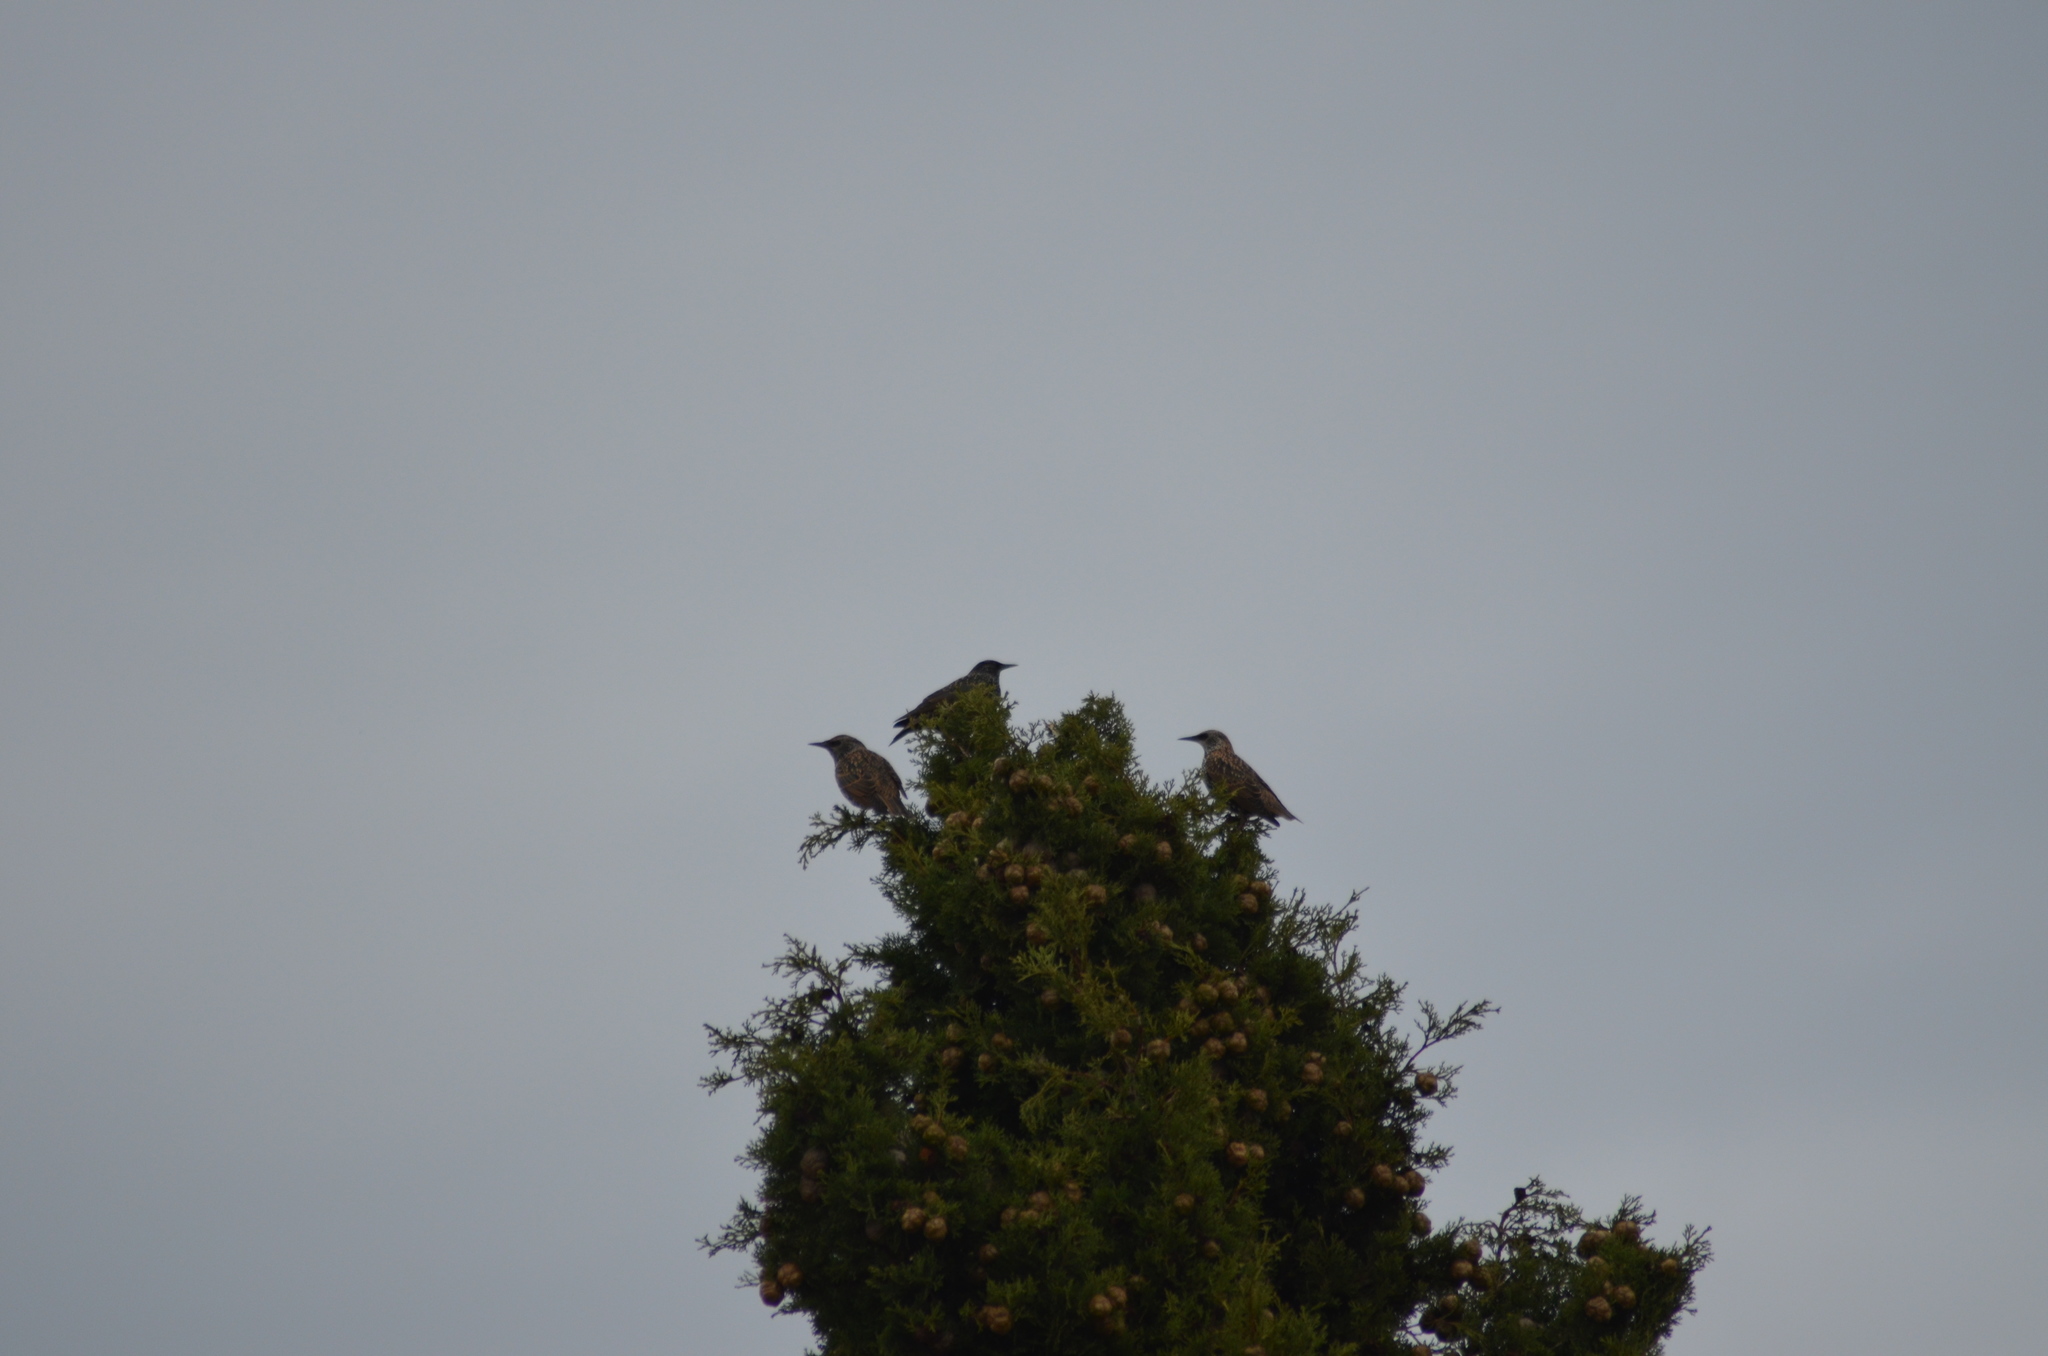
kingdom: Animalia
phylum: Chordata
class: Aves
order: Passeriformes
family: Sturnidae
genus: Sturnus
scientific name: Sturnus vulgaris
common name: Common starling
